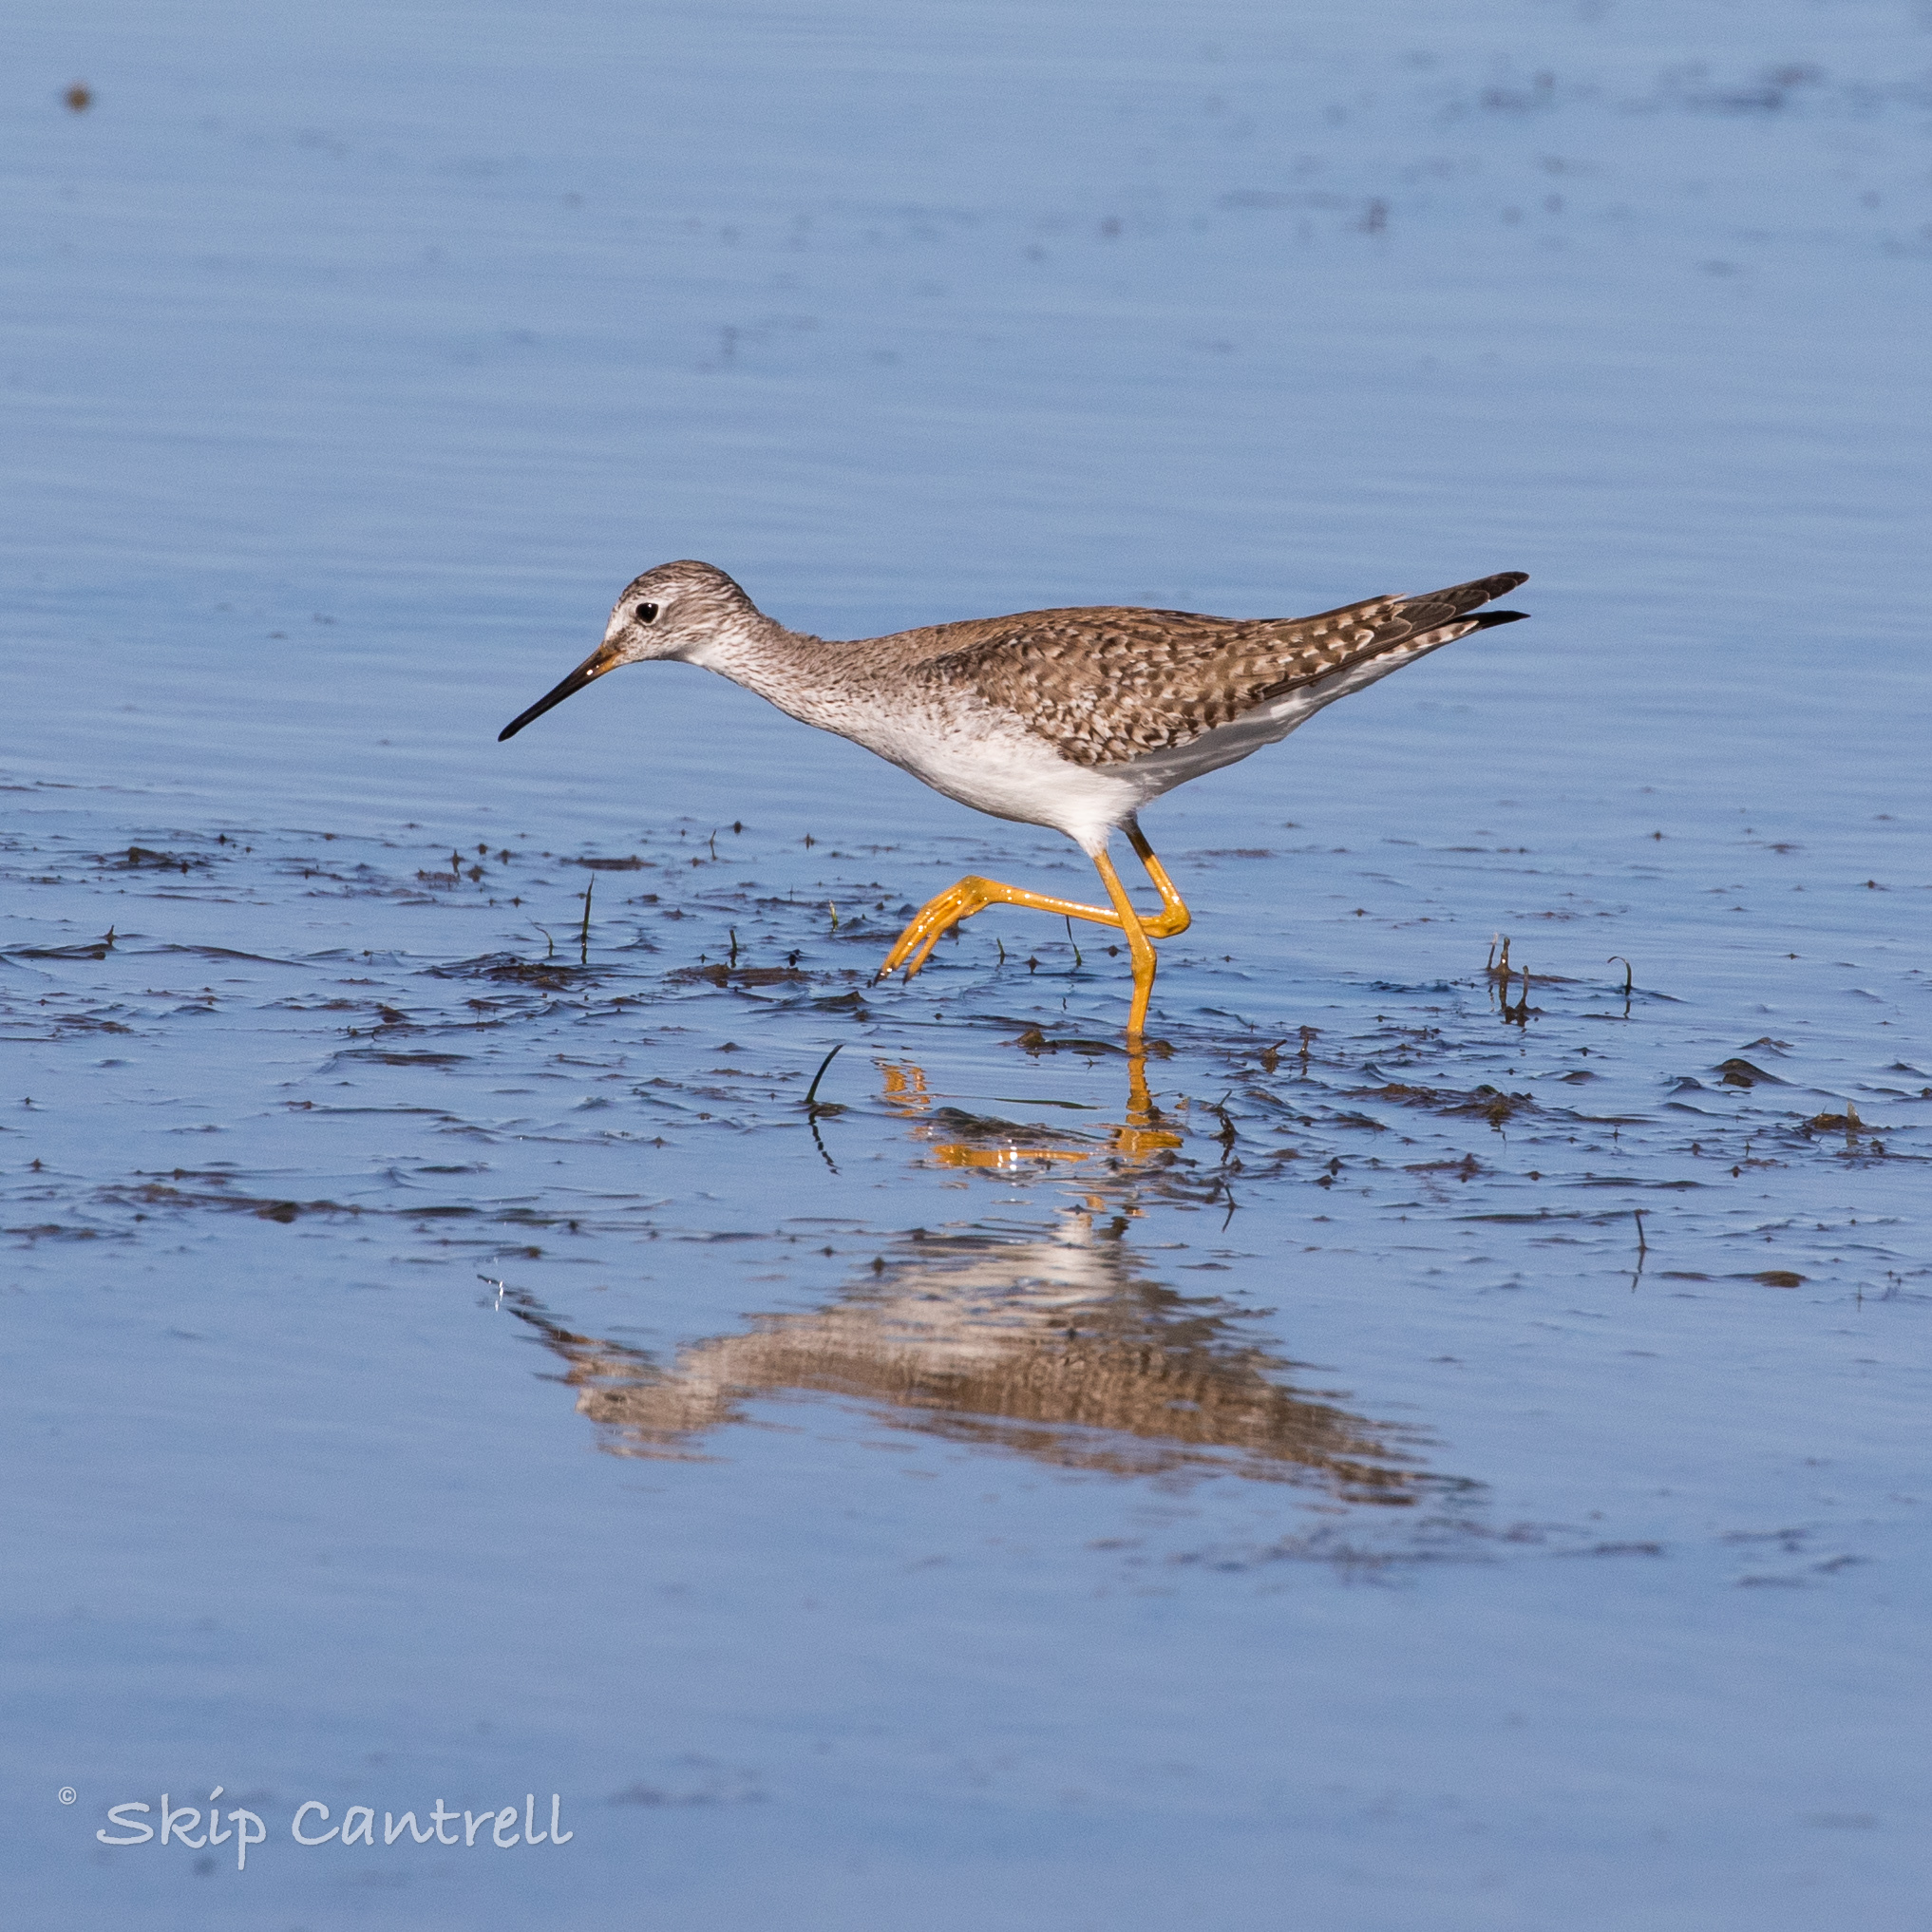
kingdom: Animalia
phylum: Chordata
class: Aves
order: Charadriiformes
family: Scolopacidae
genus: Tringa
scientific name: Tringa flavipes
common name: Lesser yellowlegs
